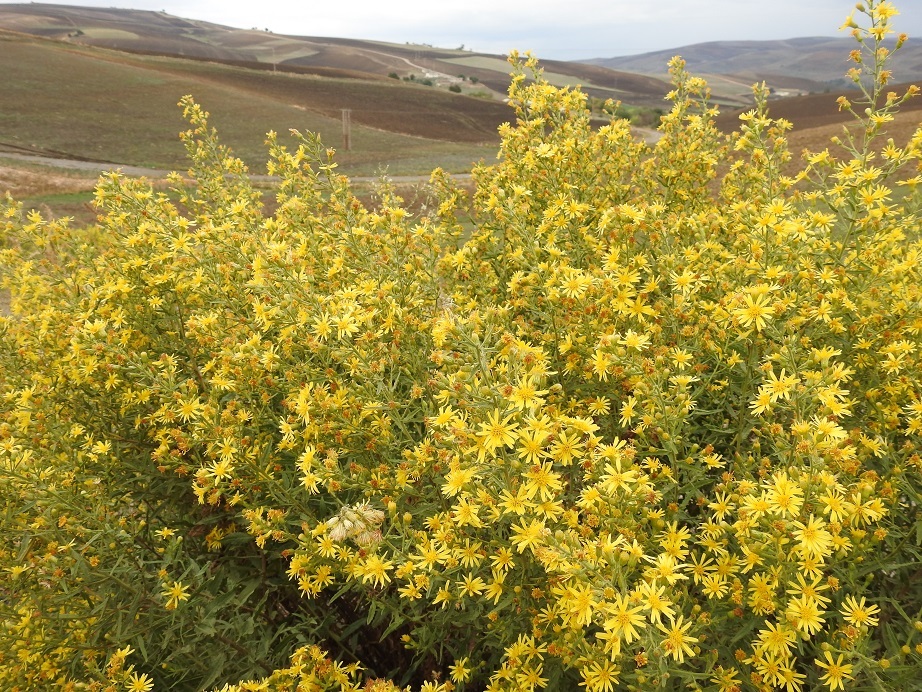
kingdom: Plantae
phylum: Tracheophyta
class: Magnoliopsida
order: Asterales
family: Asteraceae
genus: Dittrichia
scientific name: Dittrichia viscosa
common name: Woody fleabane
